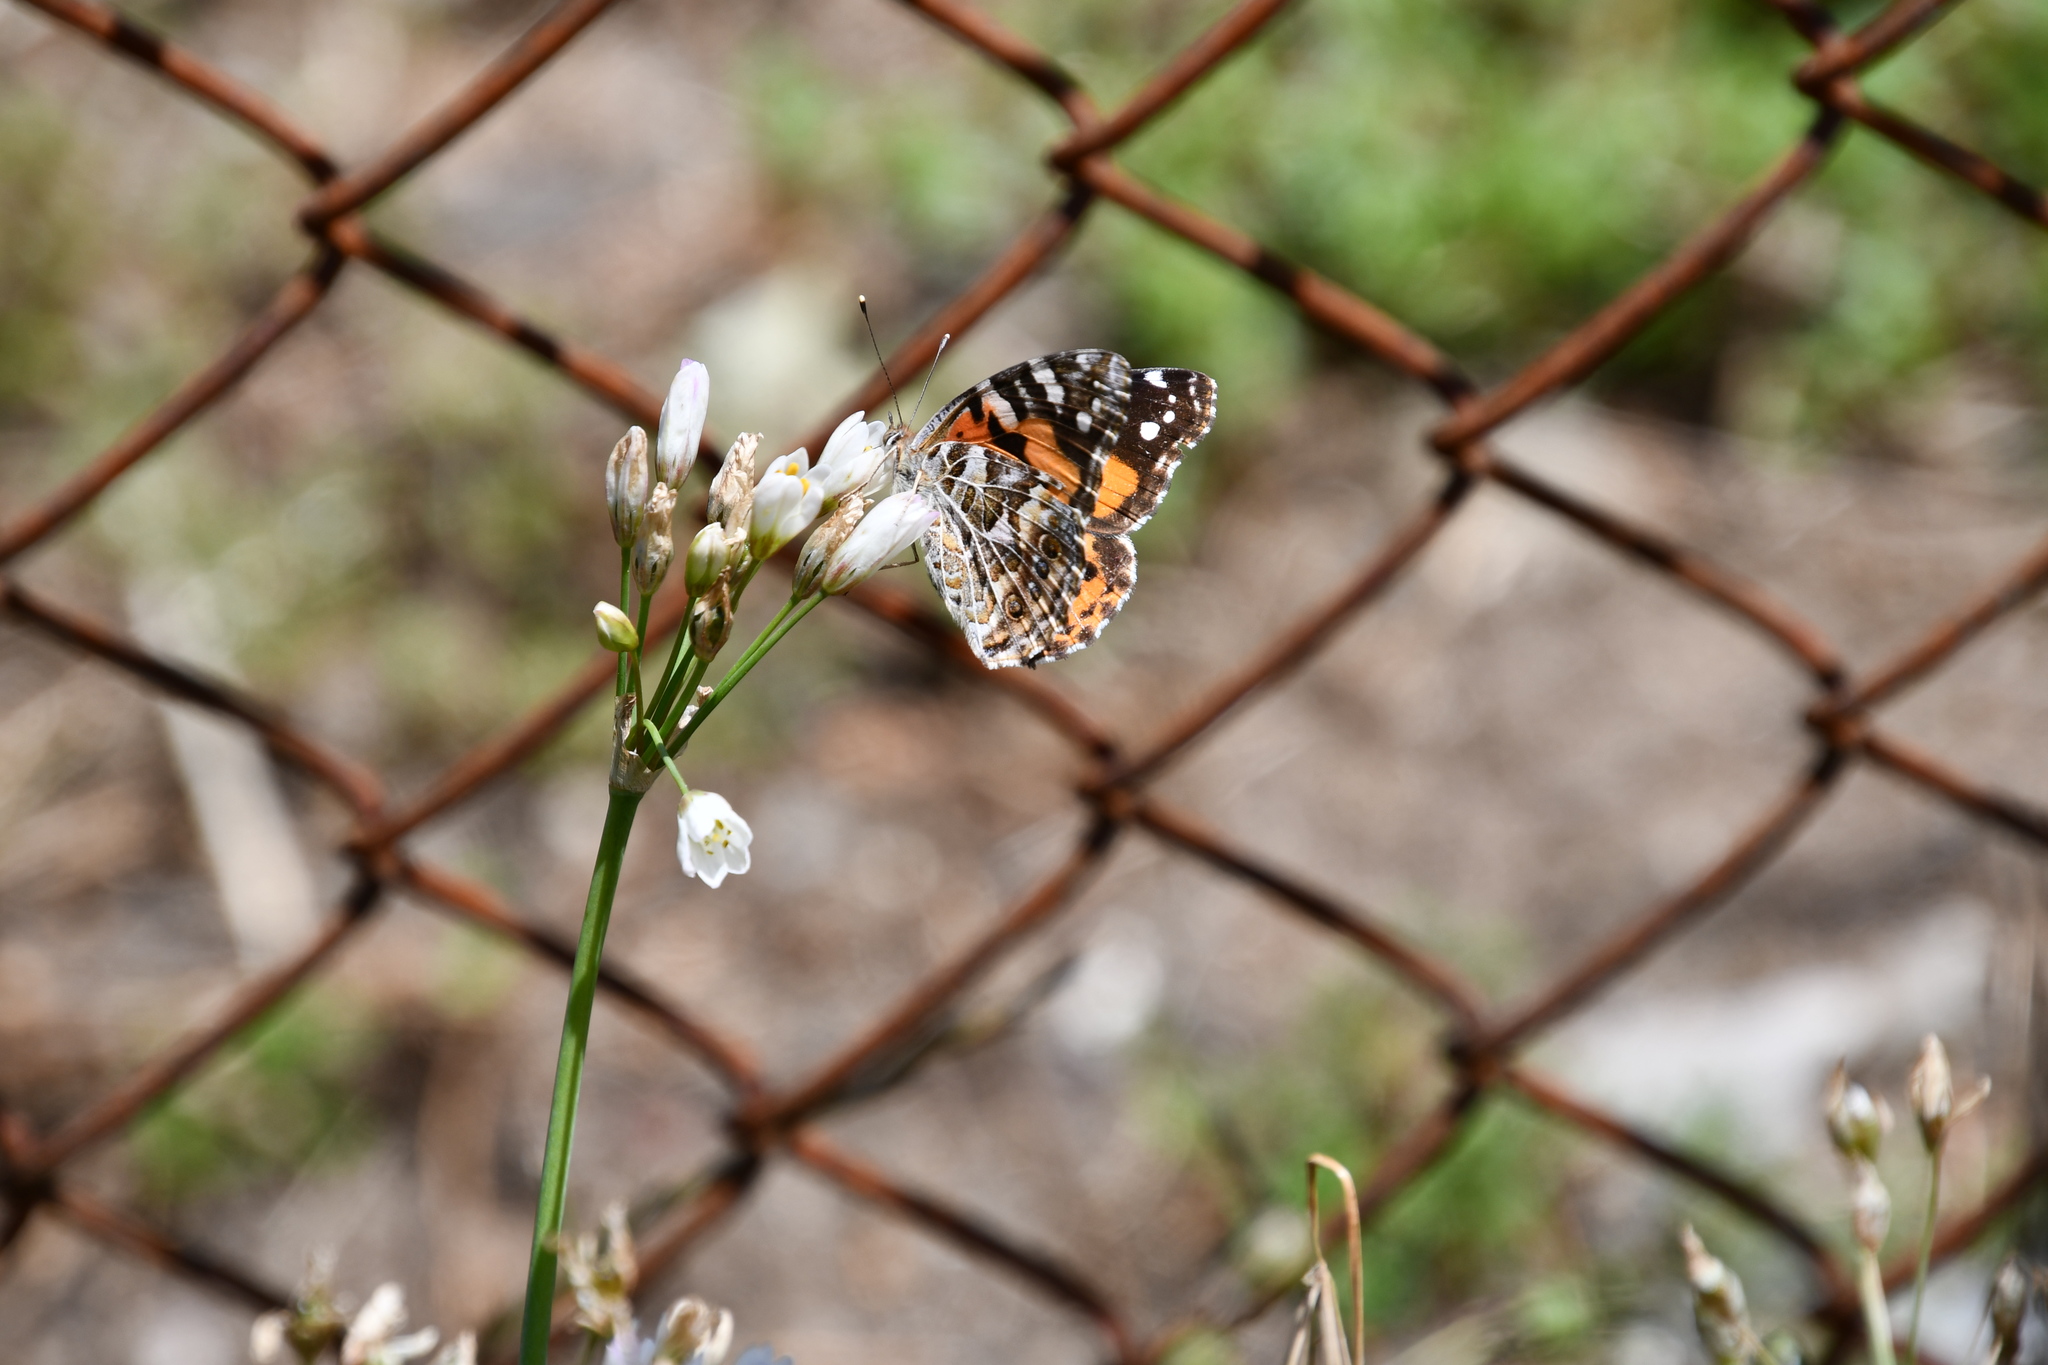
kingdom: Animalia
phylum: Arthropoda
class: Insecta
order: Lepidoptera
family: Nymphalidae
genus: Vanessa
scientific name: Vanessa kershawi
